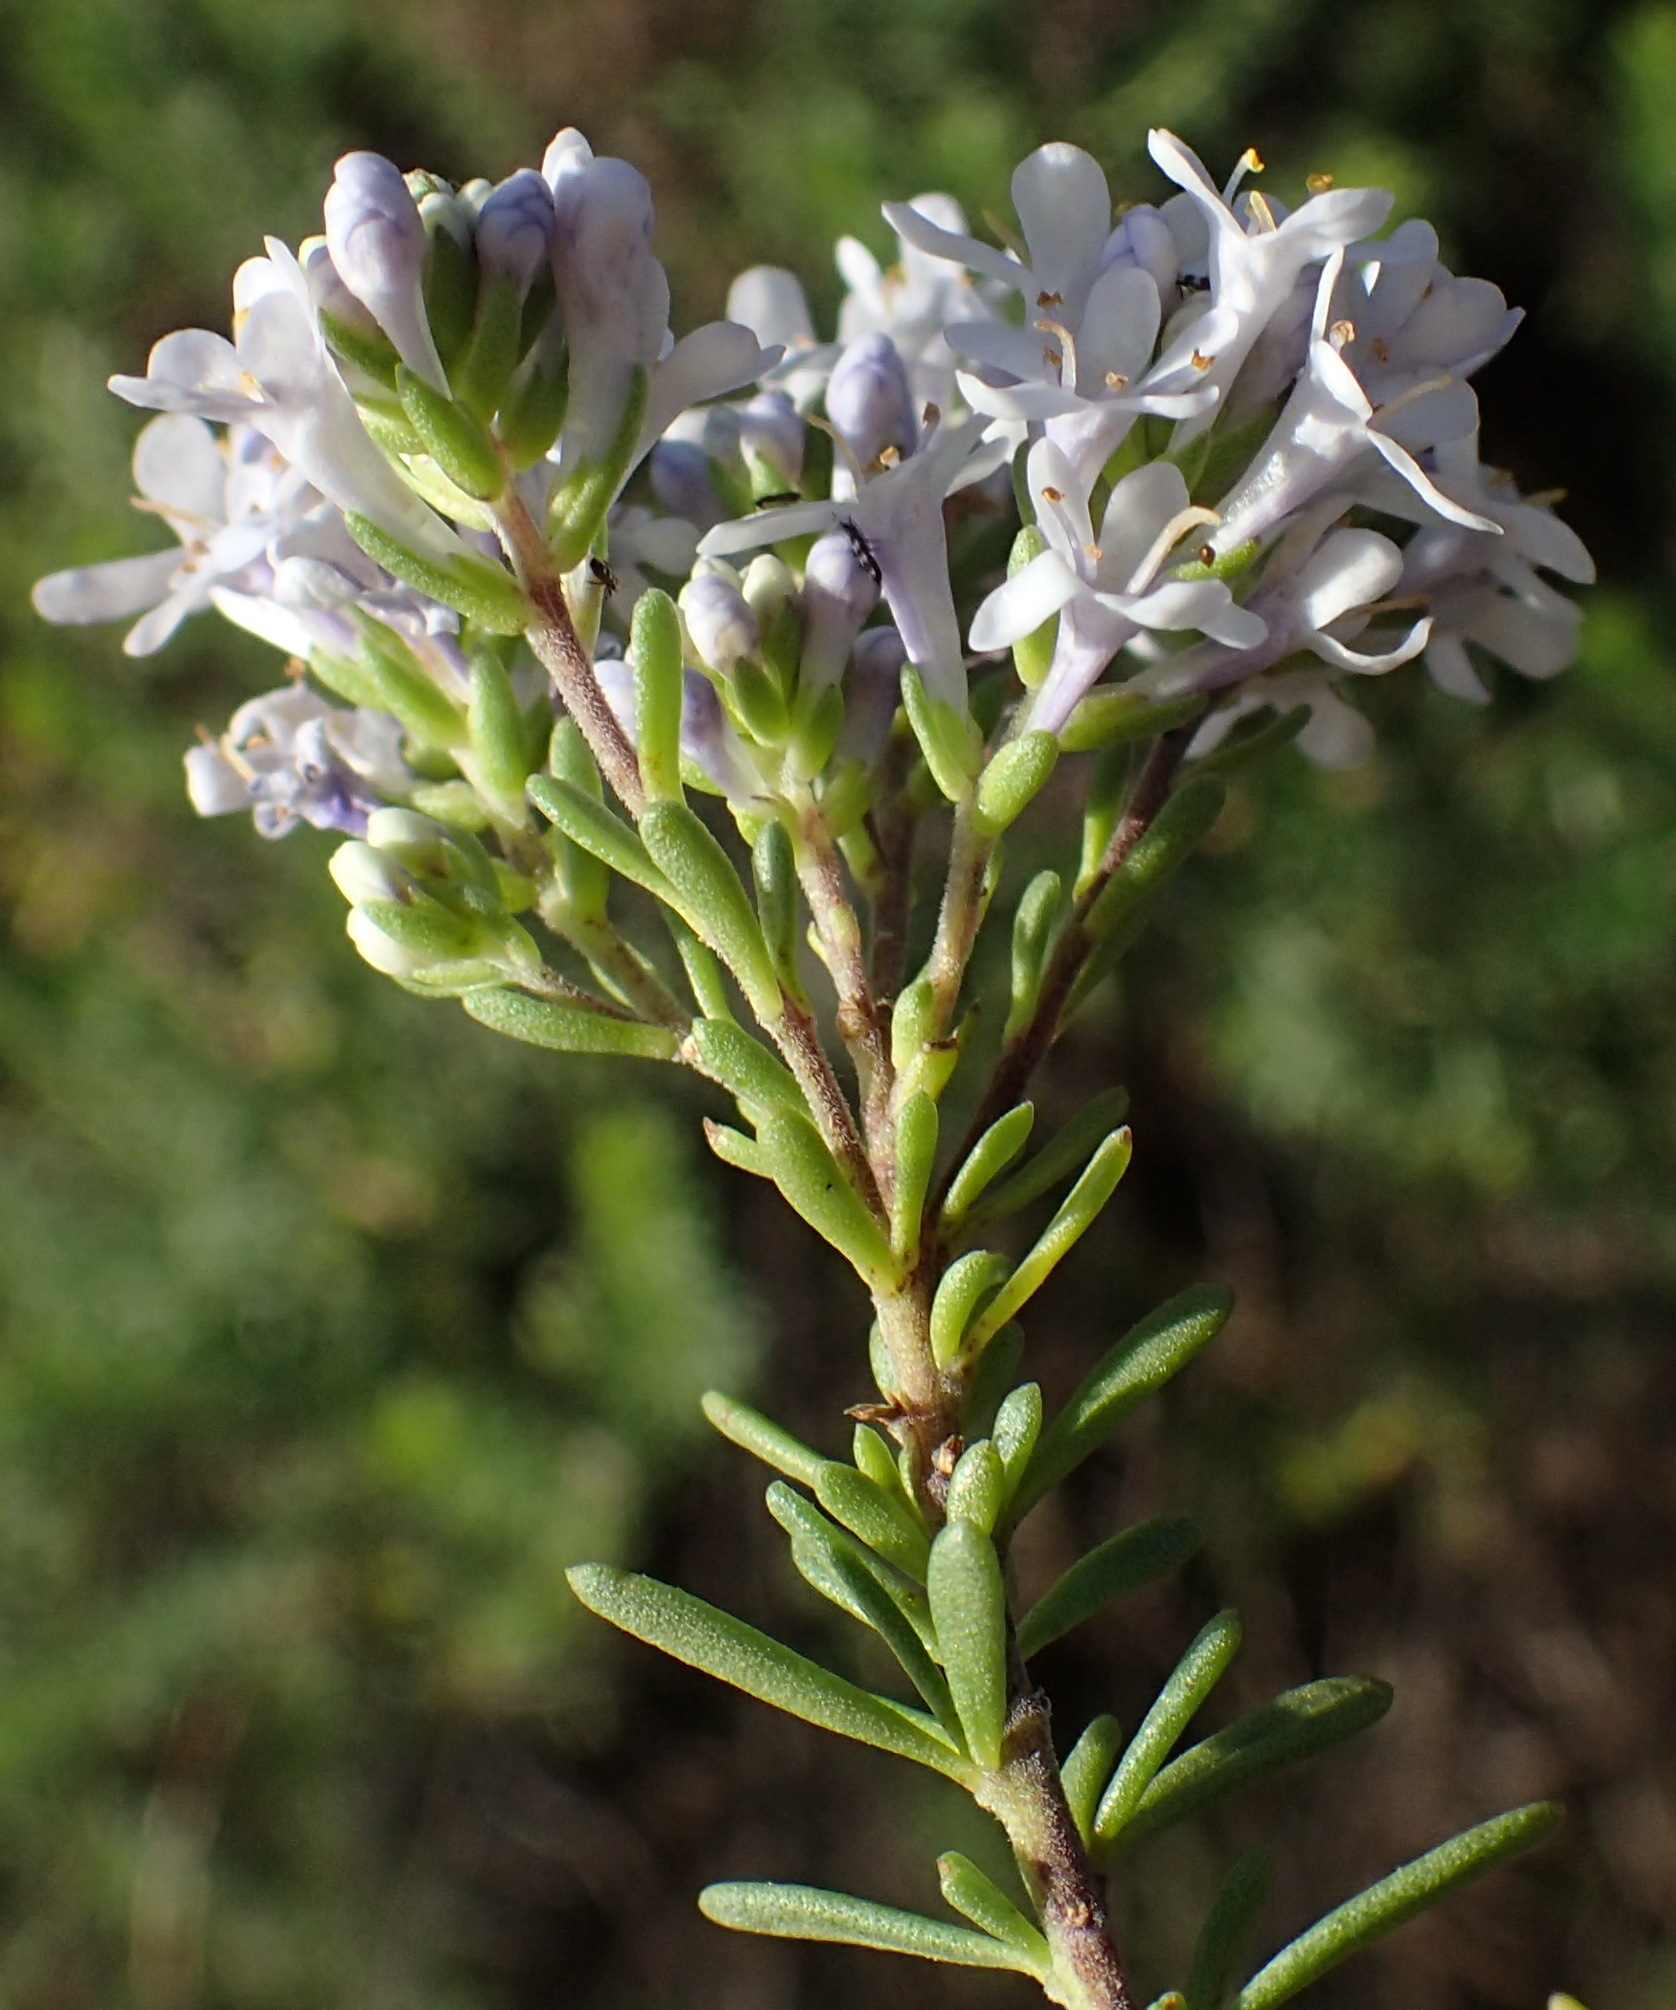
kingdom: Plantae
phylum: Tracheophyta
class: Magnoliopsida
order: Lamiales
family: Scrophulariaceae
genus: Selago
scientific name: Selago cinerea
